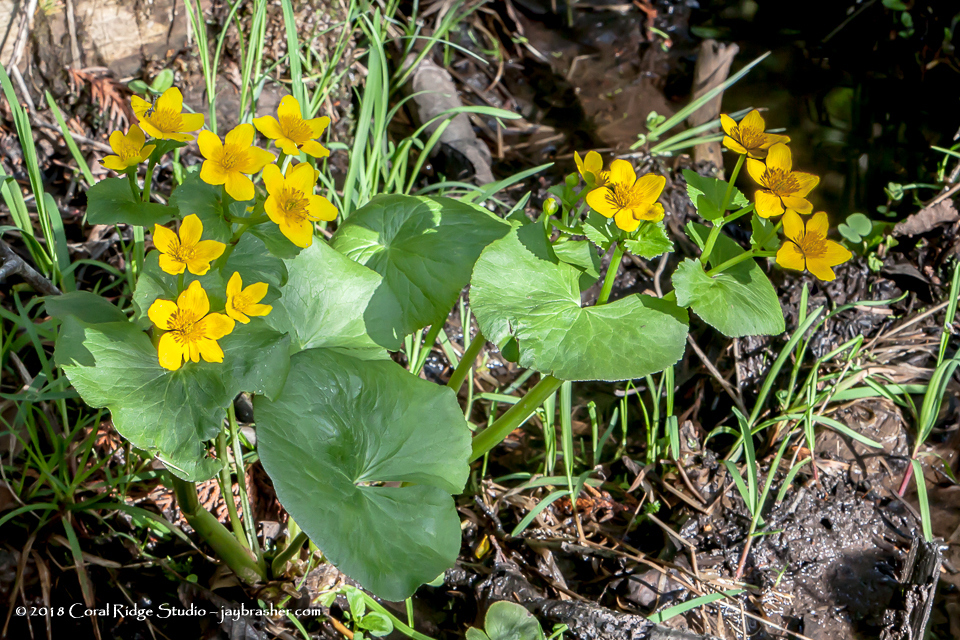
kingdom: Plantae
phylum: Tracheophyta
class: Magnoliopsida
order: Ranunculales
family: Ranunculaceae
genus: Caltha
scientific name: Caltha palustris
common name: Marsh marigold
